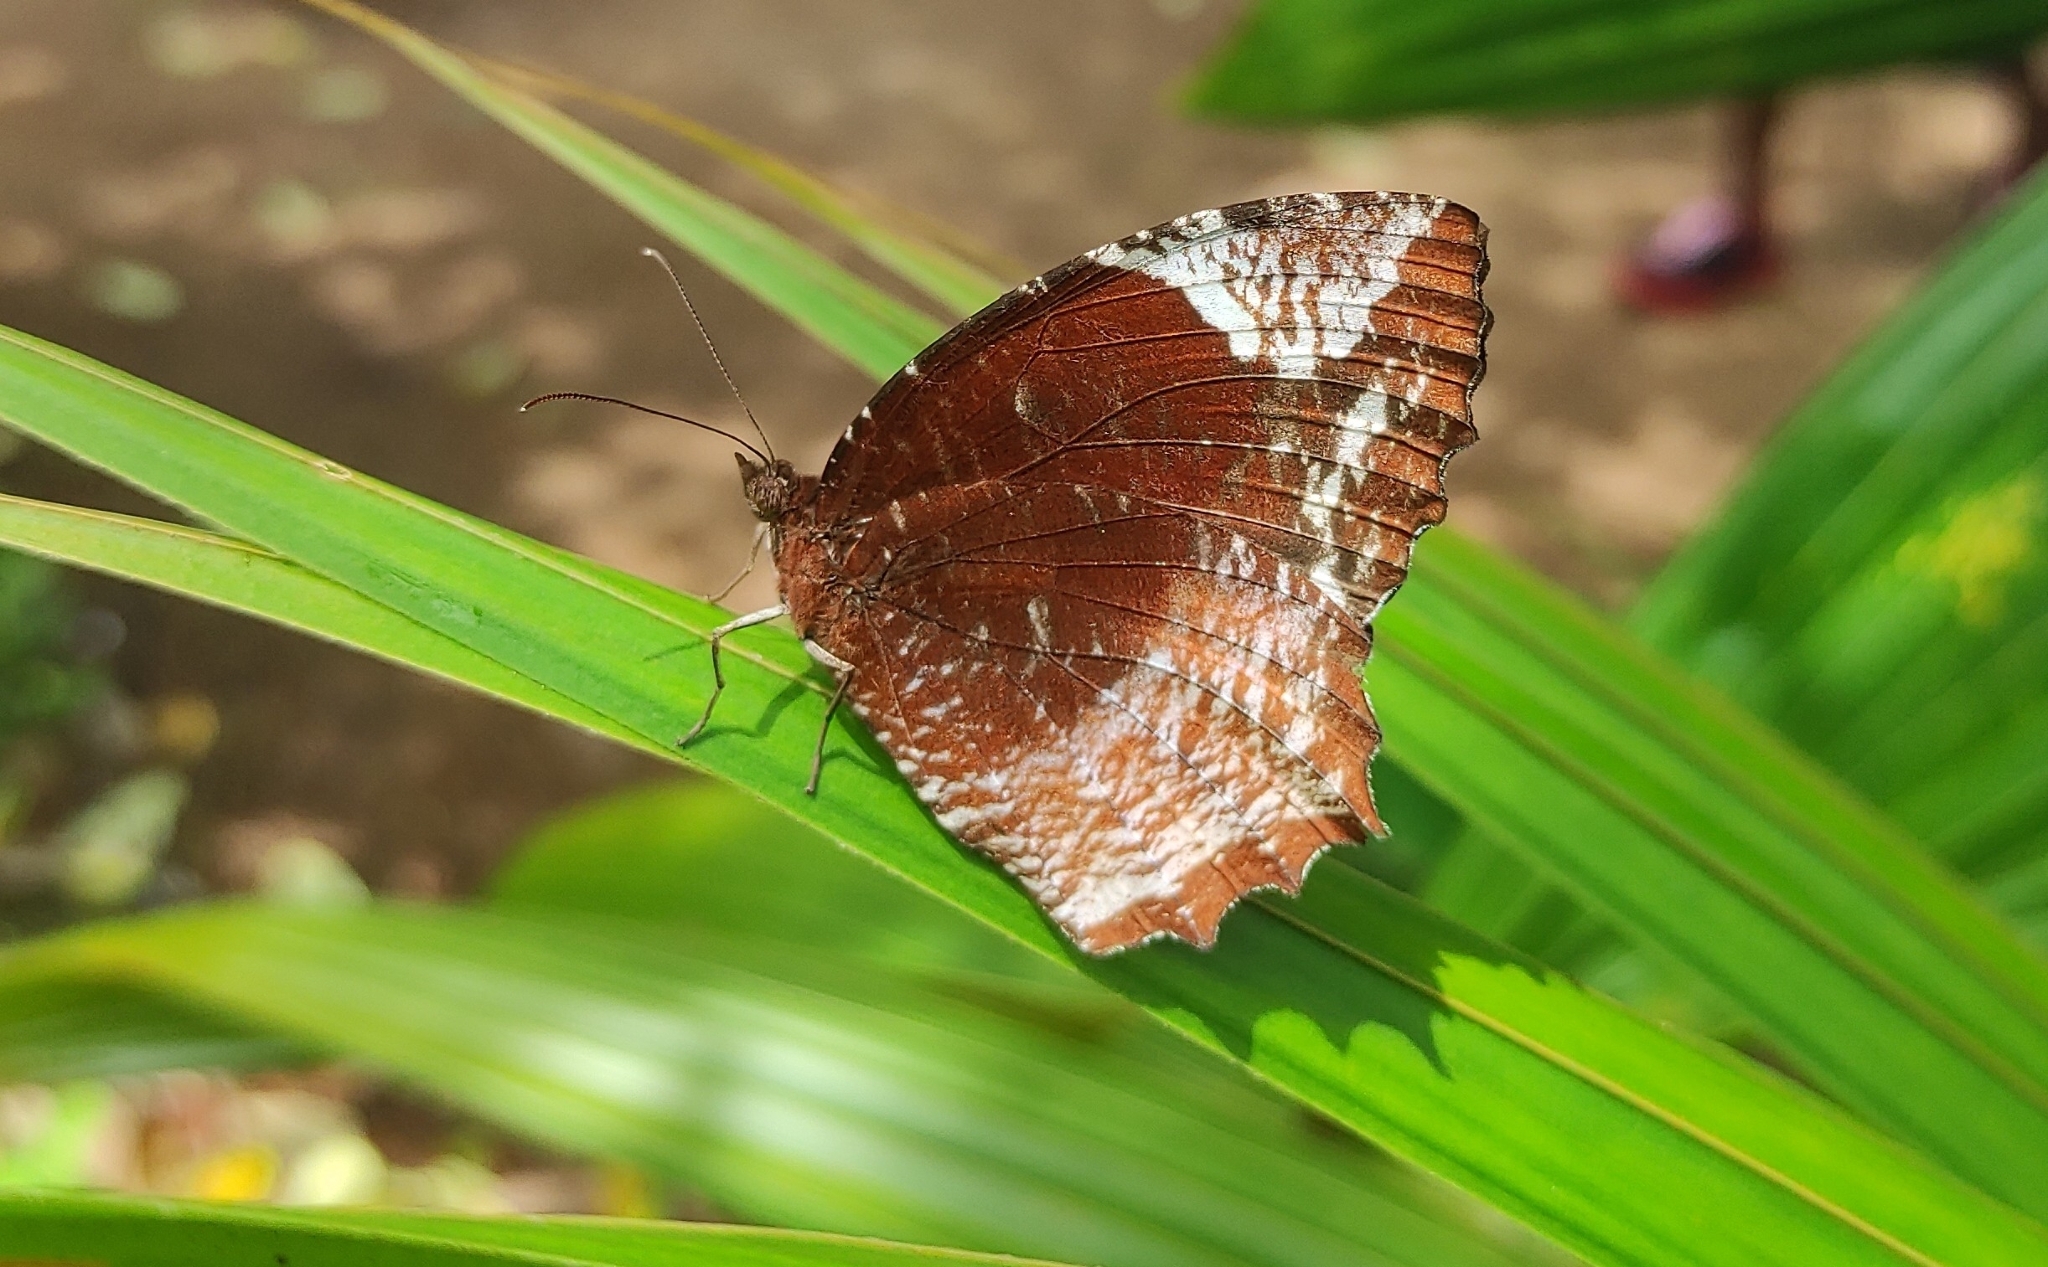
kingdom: Animalia
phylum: Arthropoda
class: Insecta
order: Lepidoptera
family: Nymphalidae
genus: Elymnias
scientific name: Elymnias caudata
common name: Tailed palmfly
